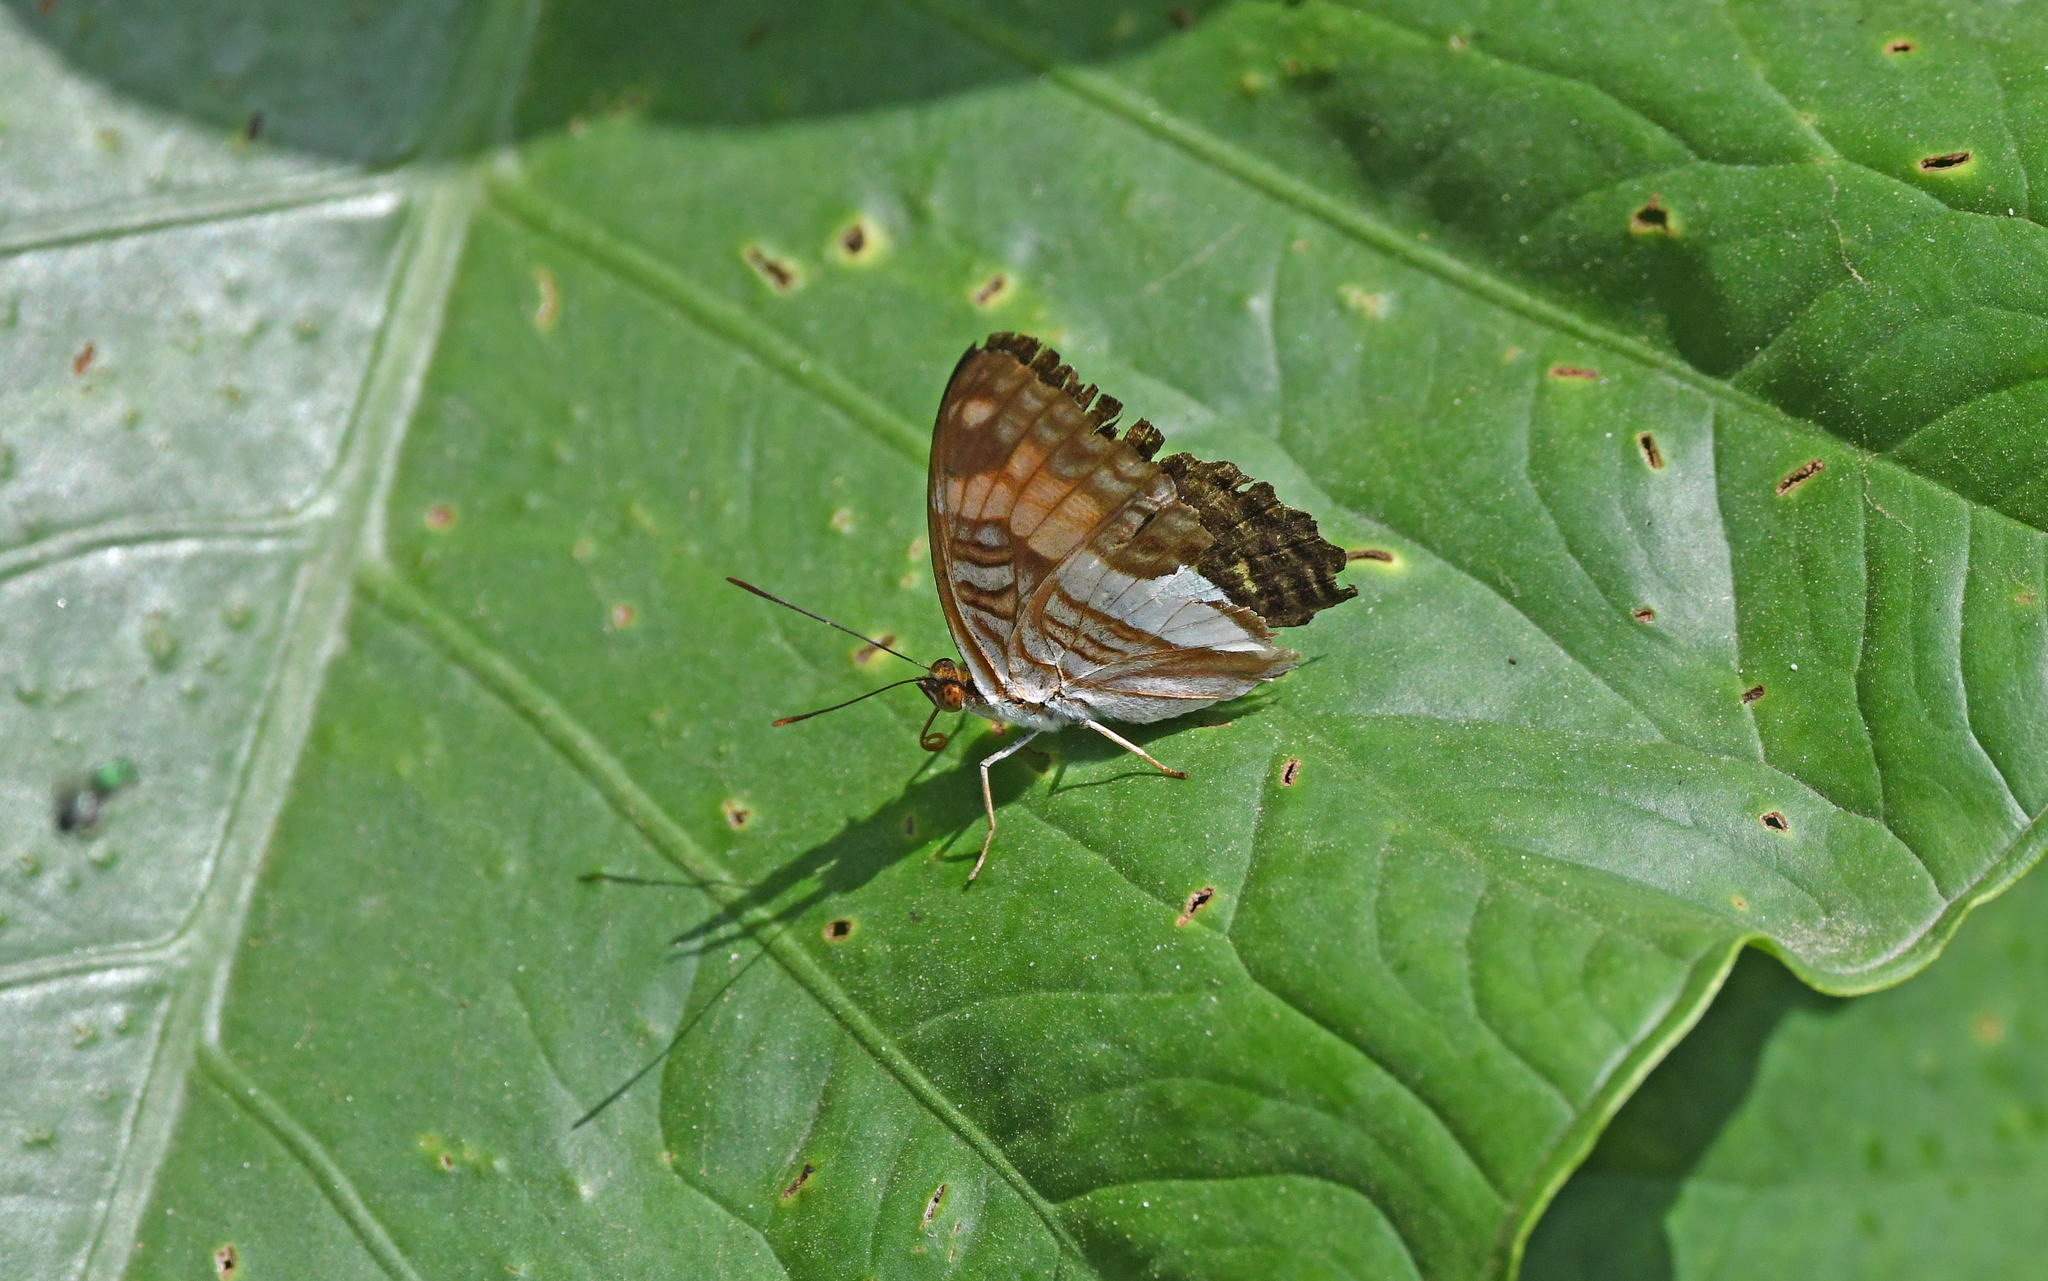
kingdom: Animalia
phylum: Arthropoda
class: Insecta
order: Lepidoptera
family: Nymphalidae
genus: Limenitis
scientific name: Limenitis boeotia
